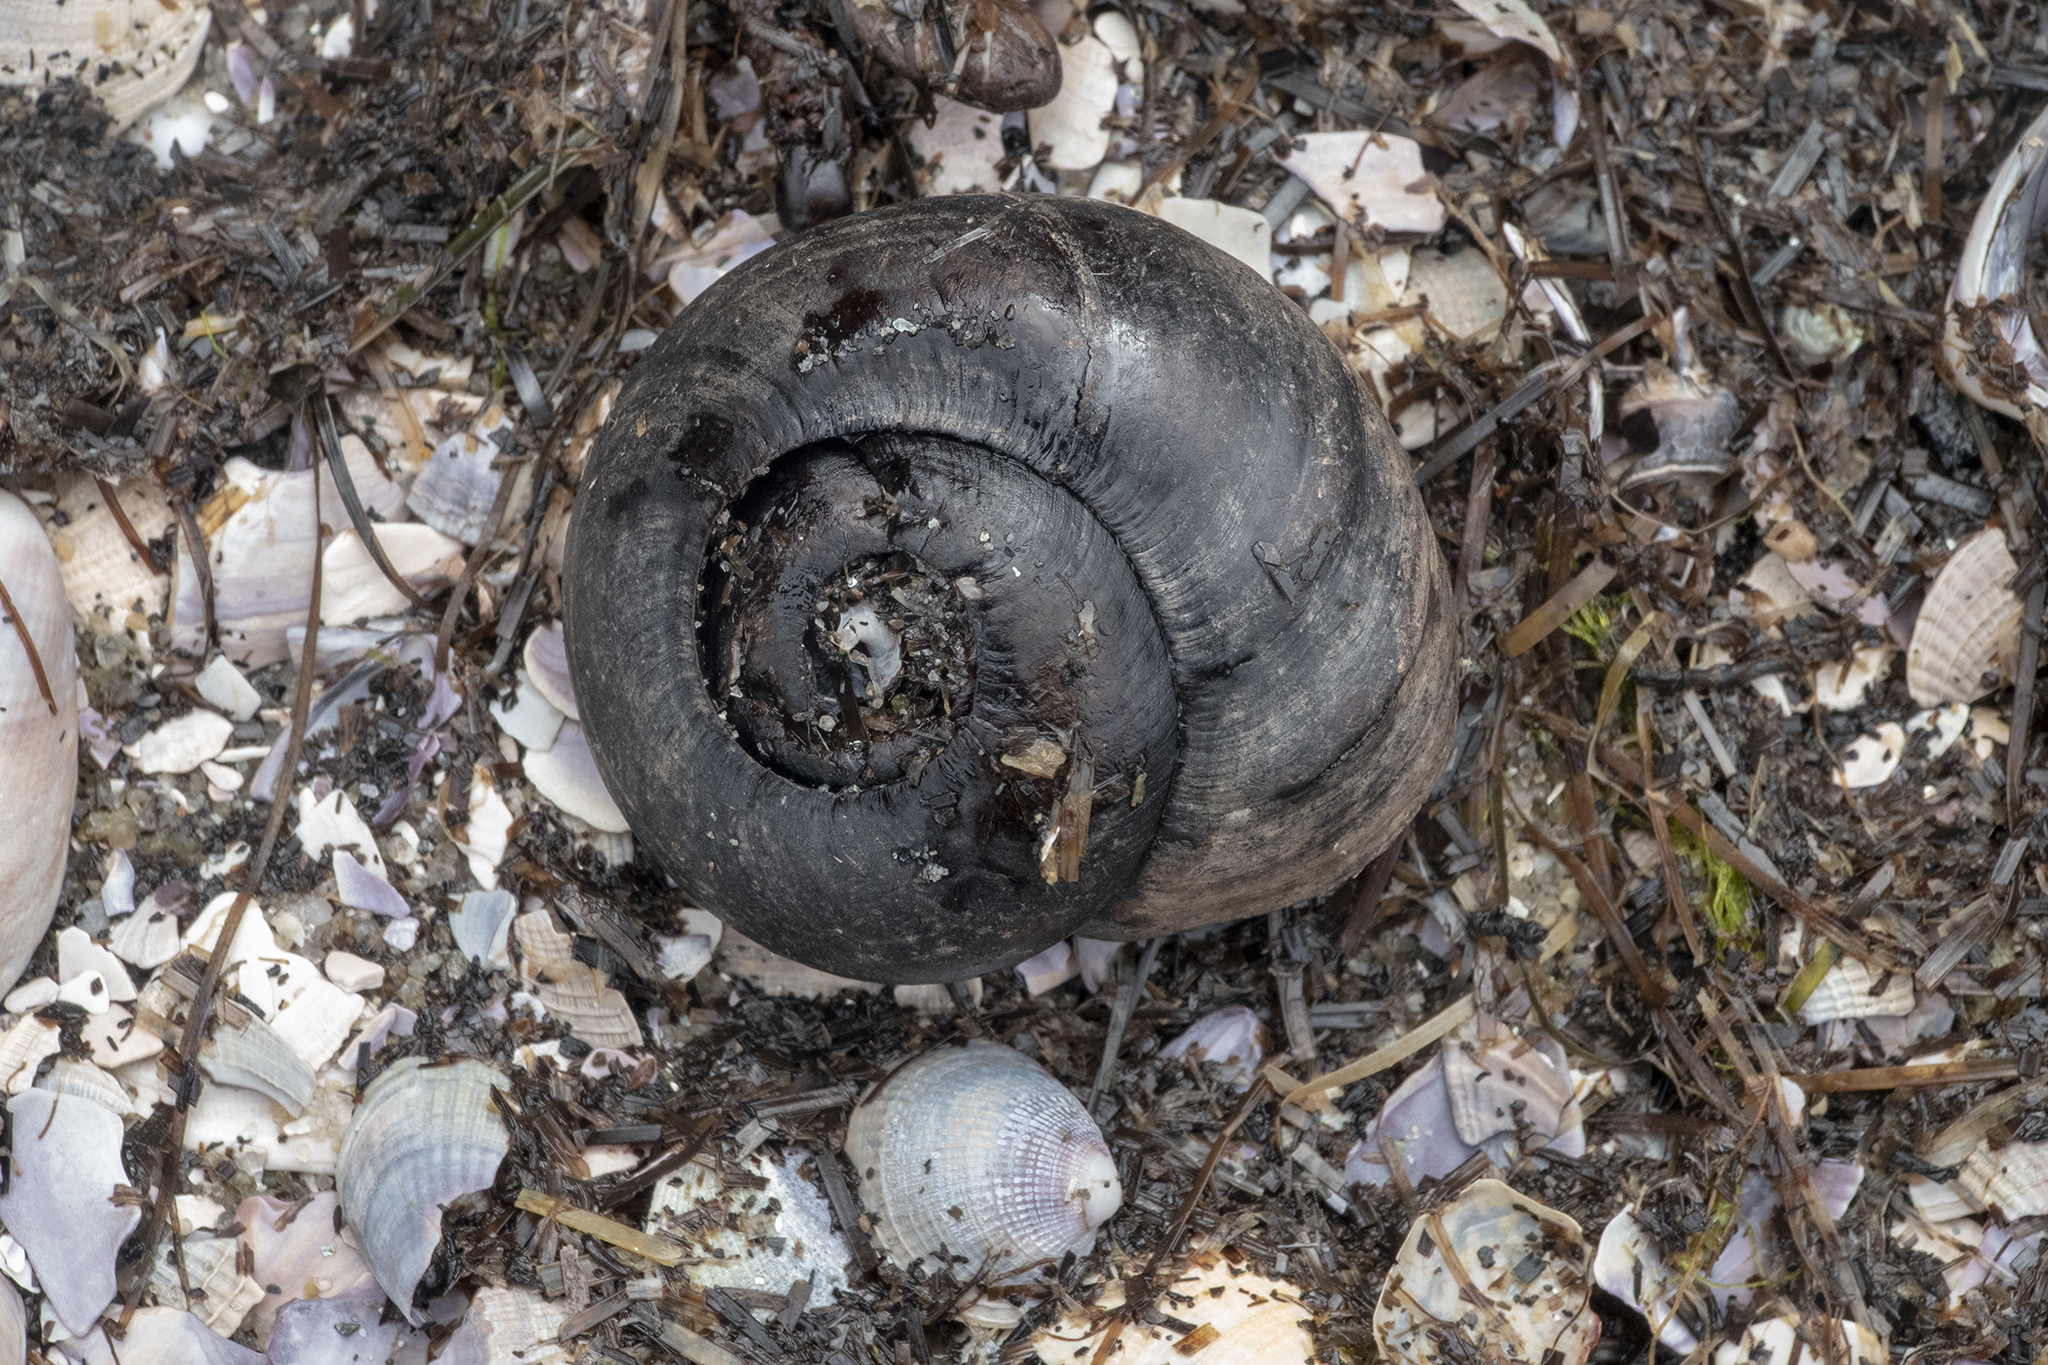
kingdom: Animalia
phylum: Mollusca
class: Gastropoda
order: Stylommatophora
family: Rhytididae
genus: Powelliphanta
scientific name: Powelliphanta gilliesi
